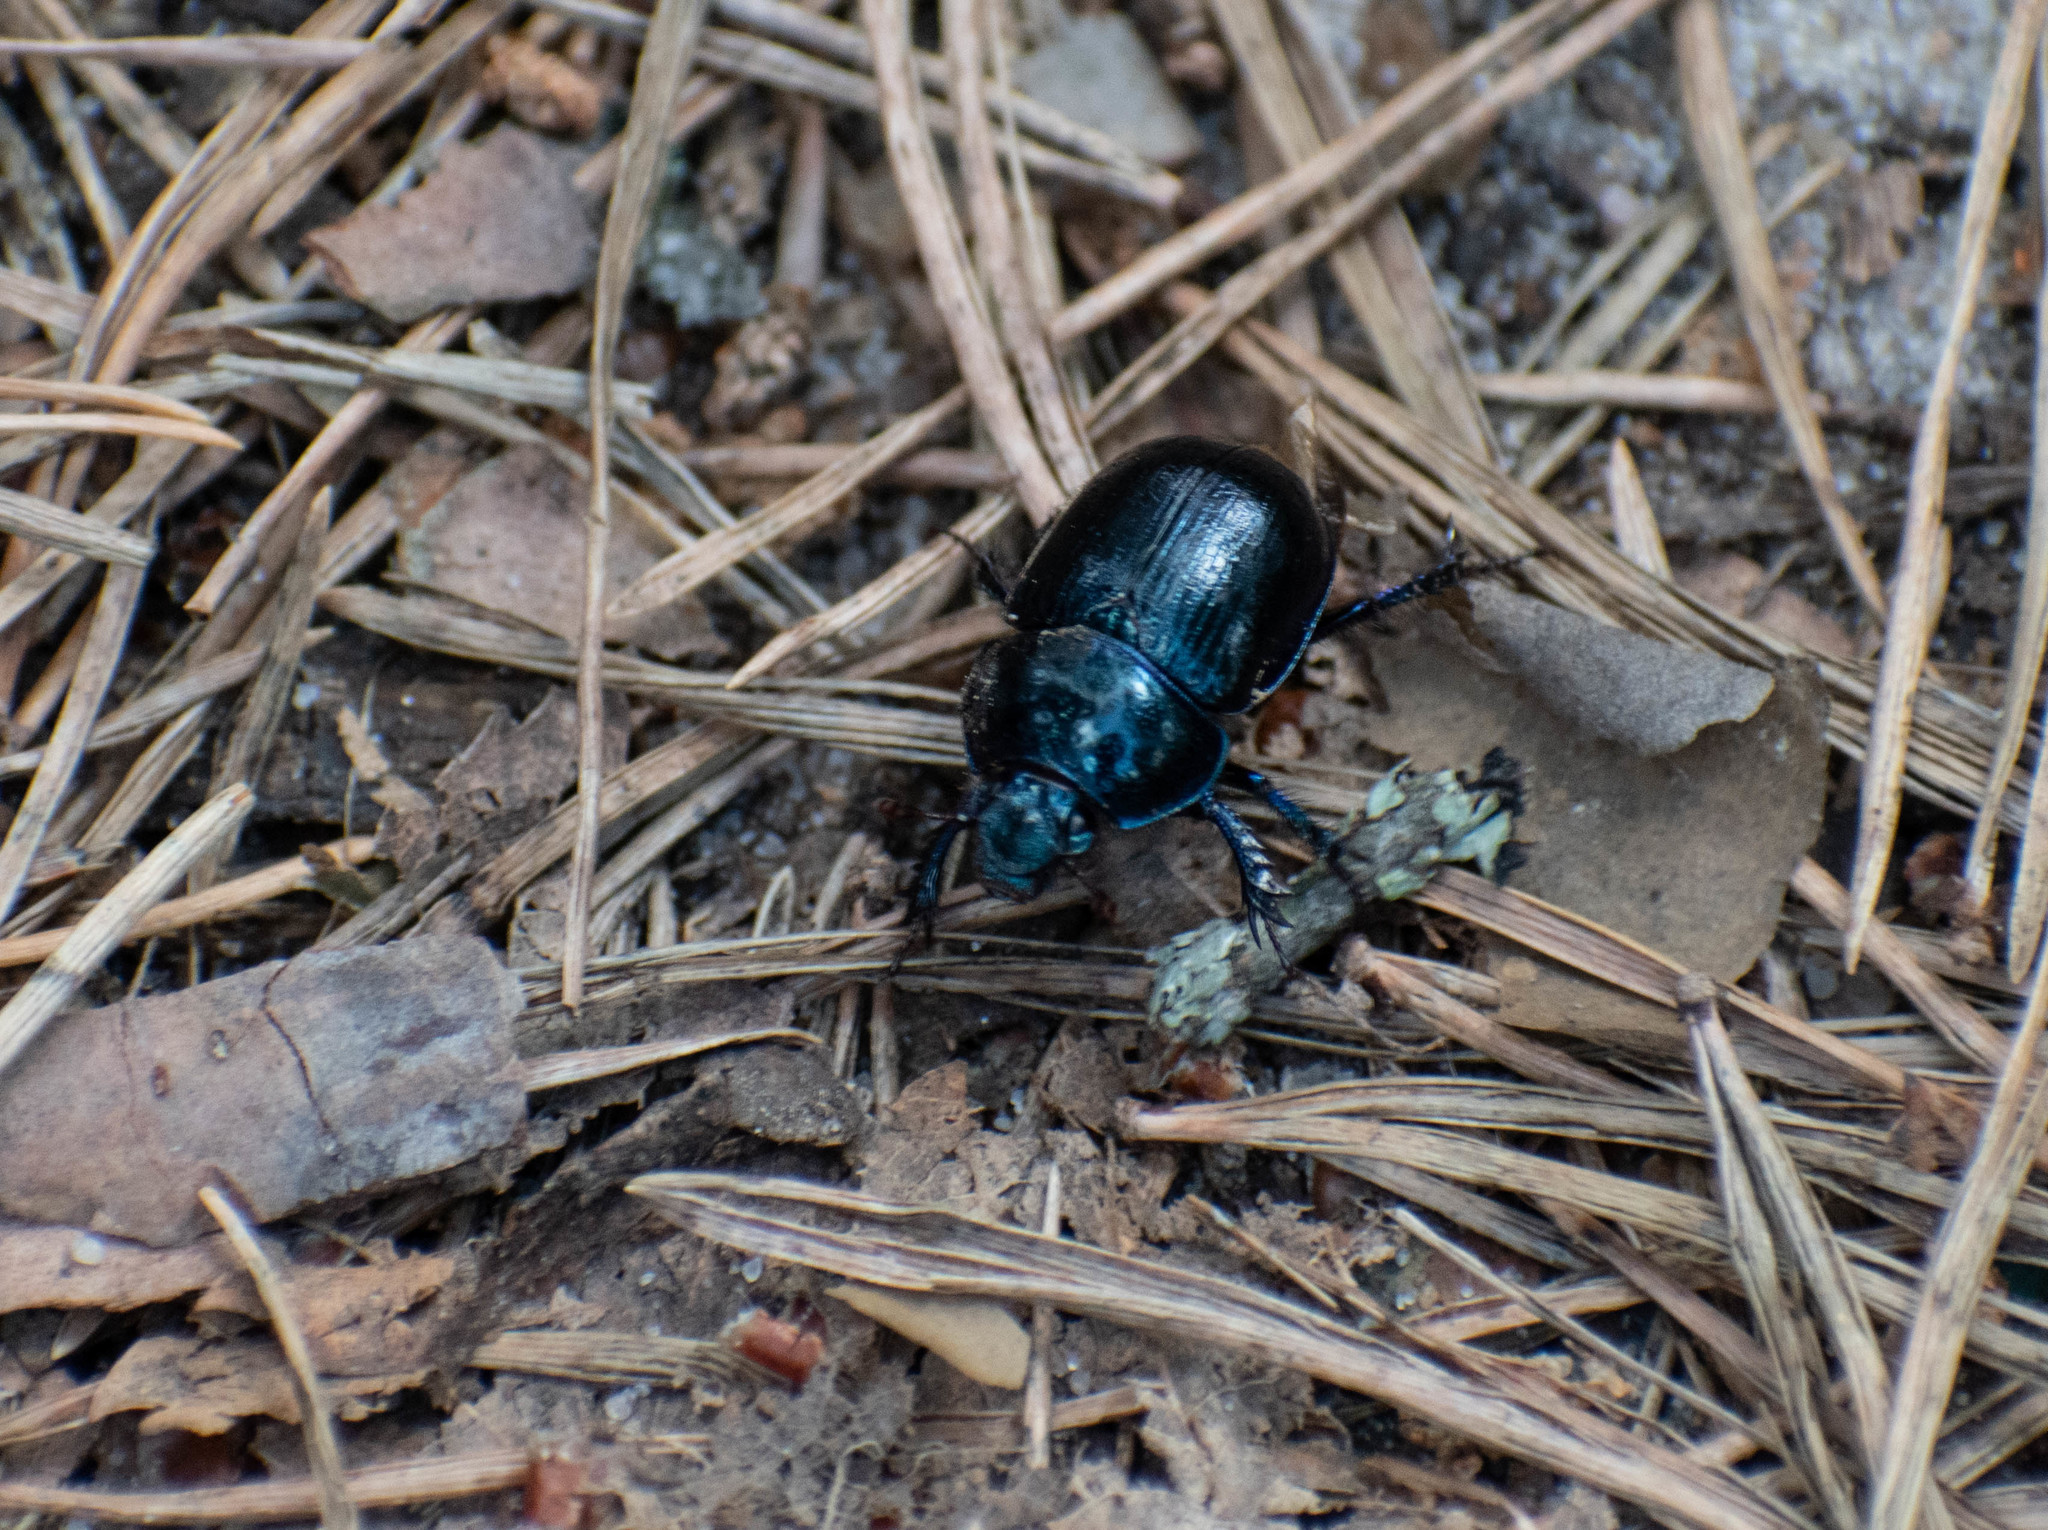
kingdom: Animalia
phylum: Arthropoda
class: Insecta
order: Coleoptera
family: Geotrupidae
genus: Anoplotrupes
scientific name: Anoplotrupes stercorosus
